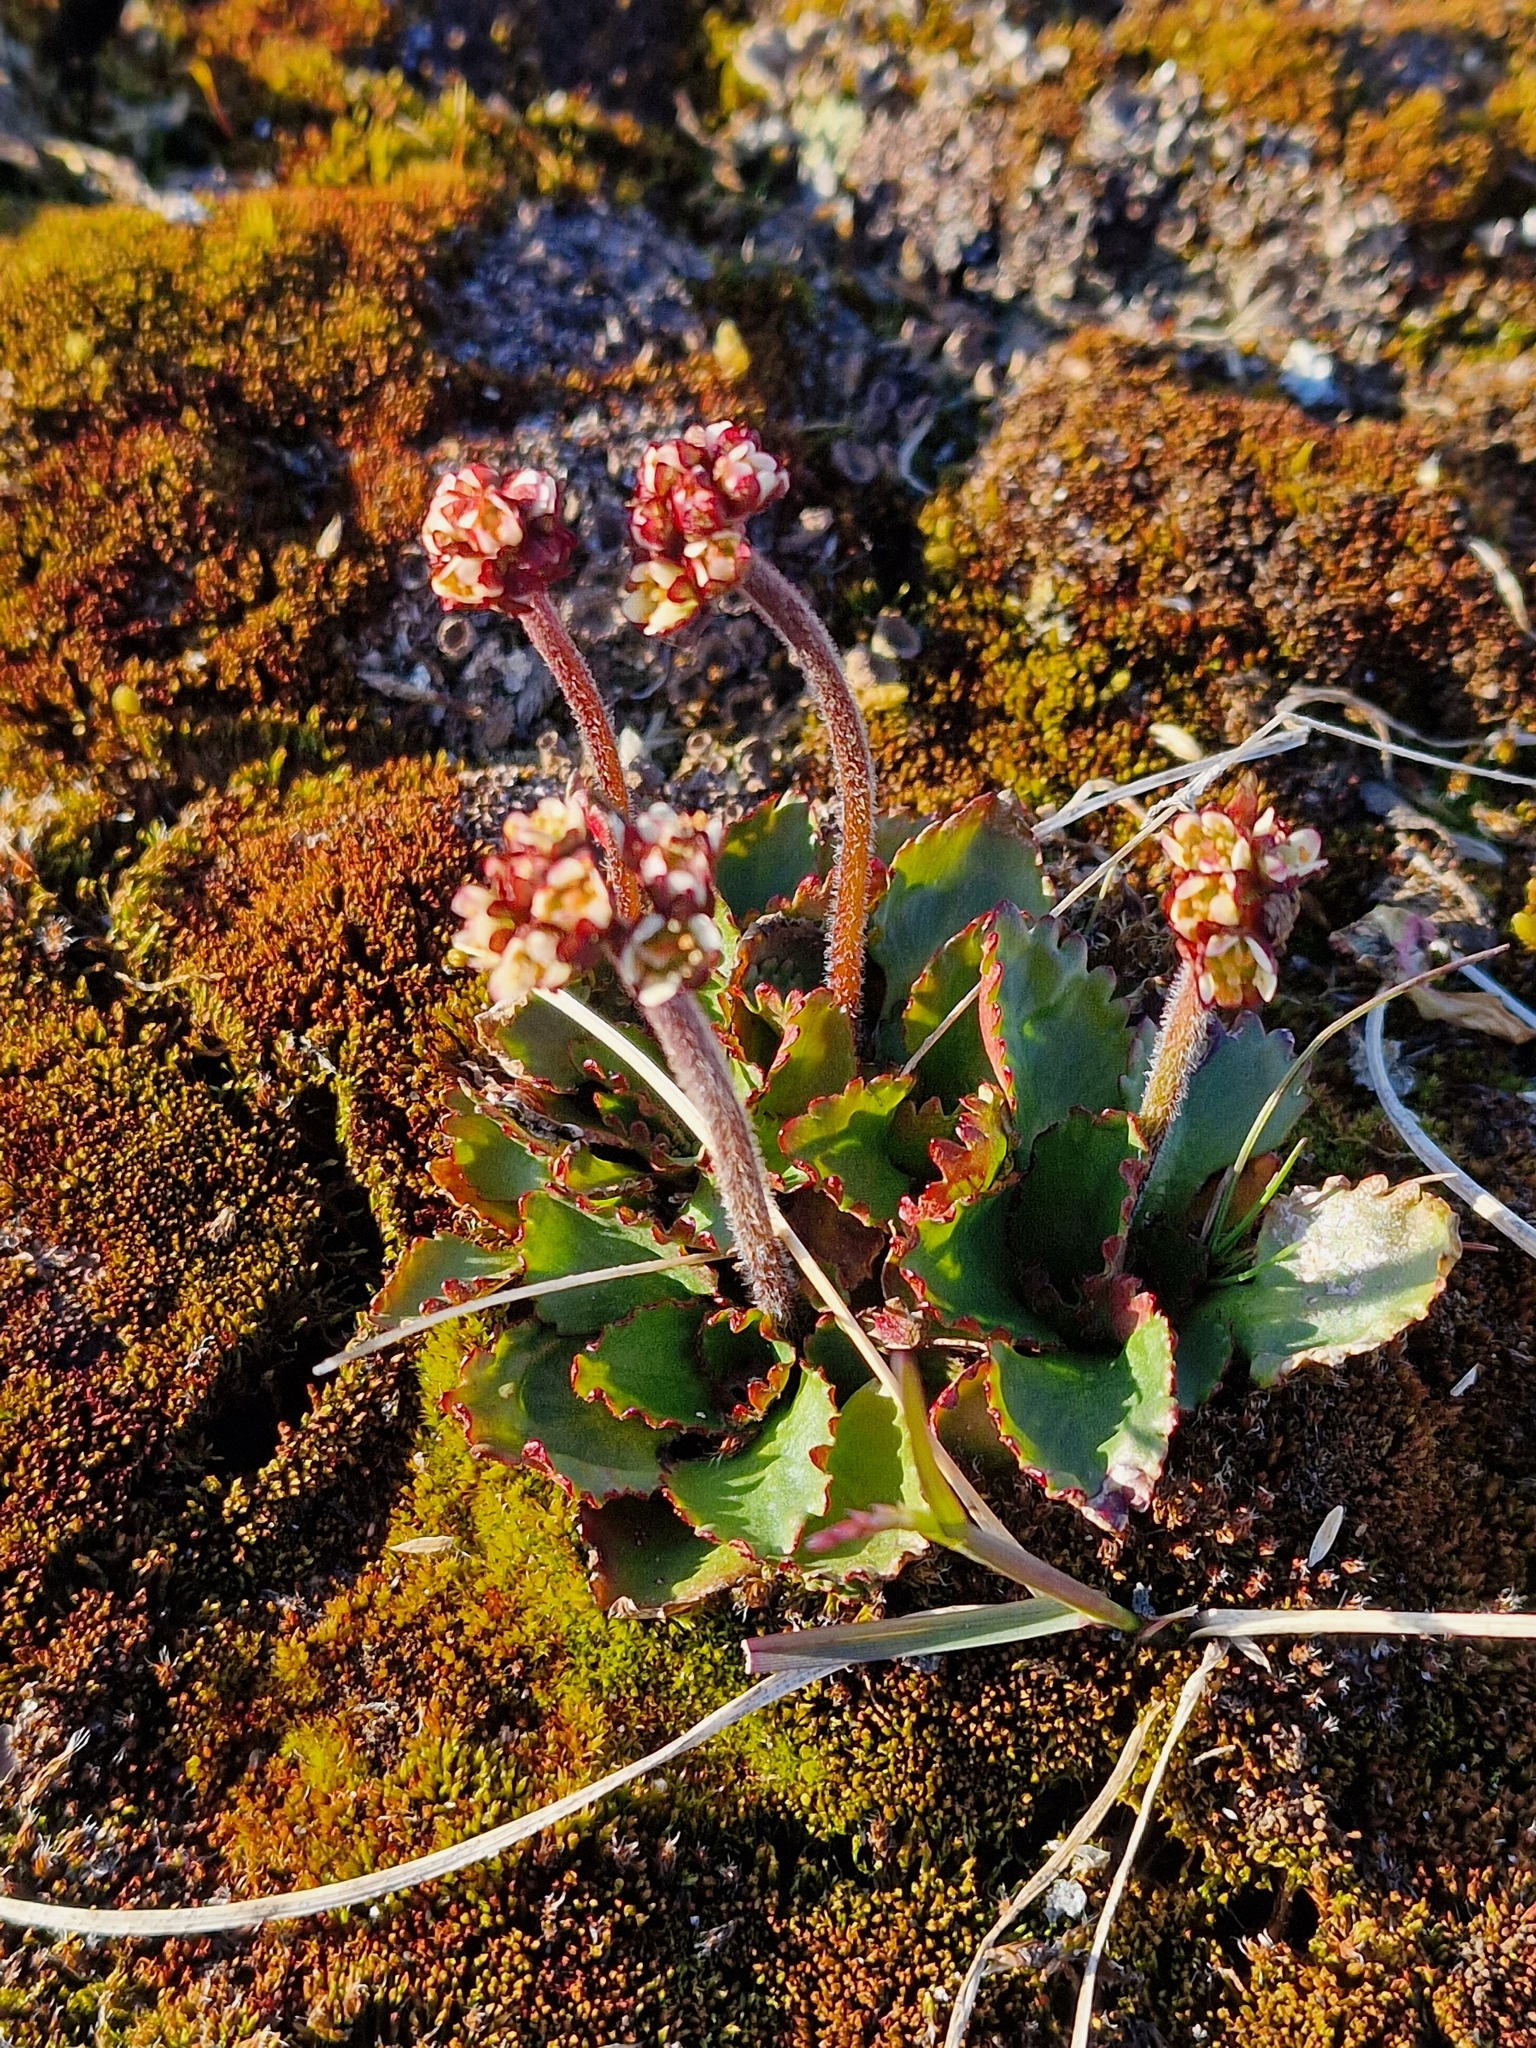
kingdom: Plantae
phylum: Tracheophyta
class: Magnoliopsida
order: Saxifragales
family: Saxifragaceae
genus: Micranthes
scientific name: Micranthes nivalis
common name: Alpine saxifrage
